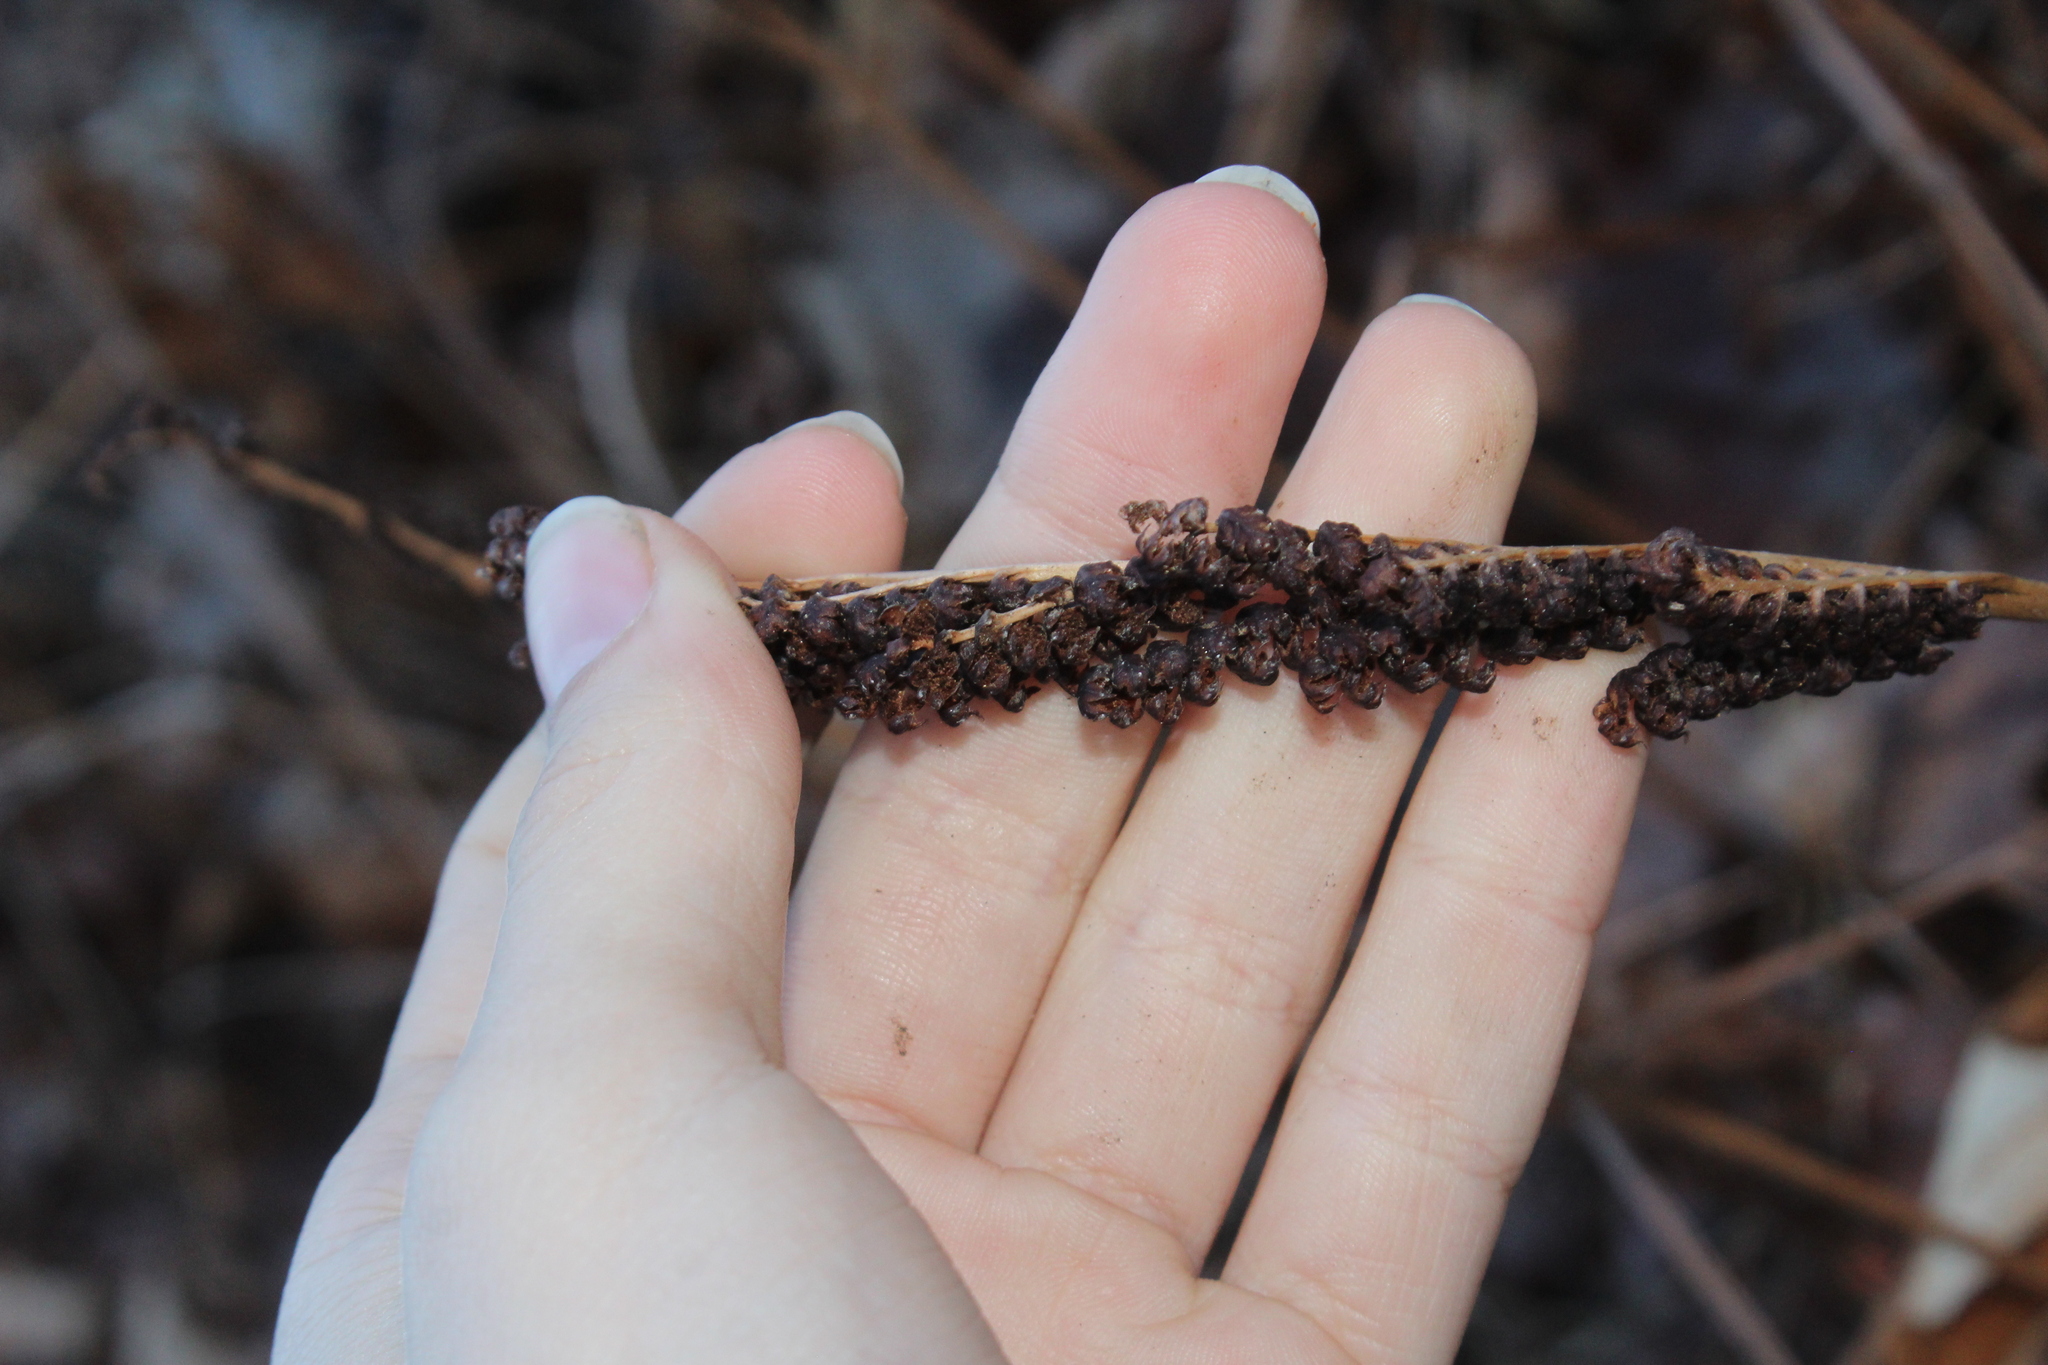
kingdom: Plantae
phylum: Tracheophyta
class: Polypodiopsida
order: Polypodiales
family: Onocleaceae
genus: Onoclea
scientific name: Onoclea sensibilis
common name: Sensitive fern
